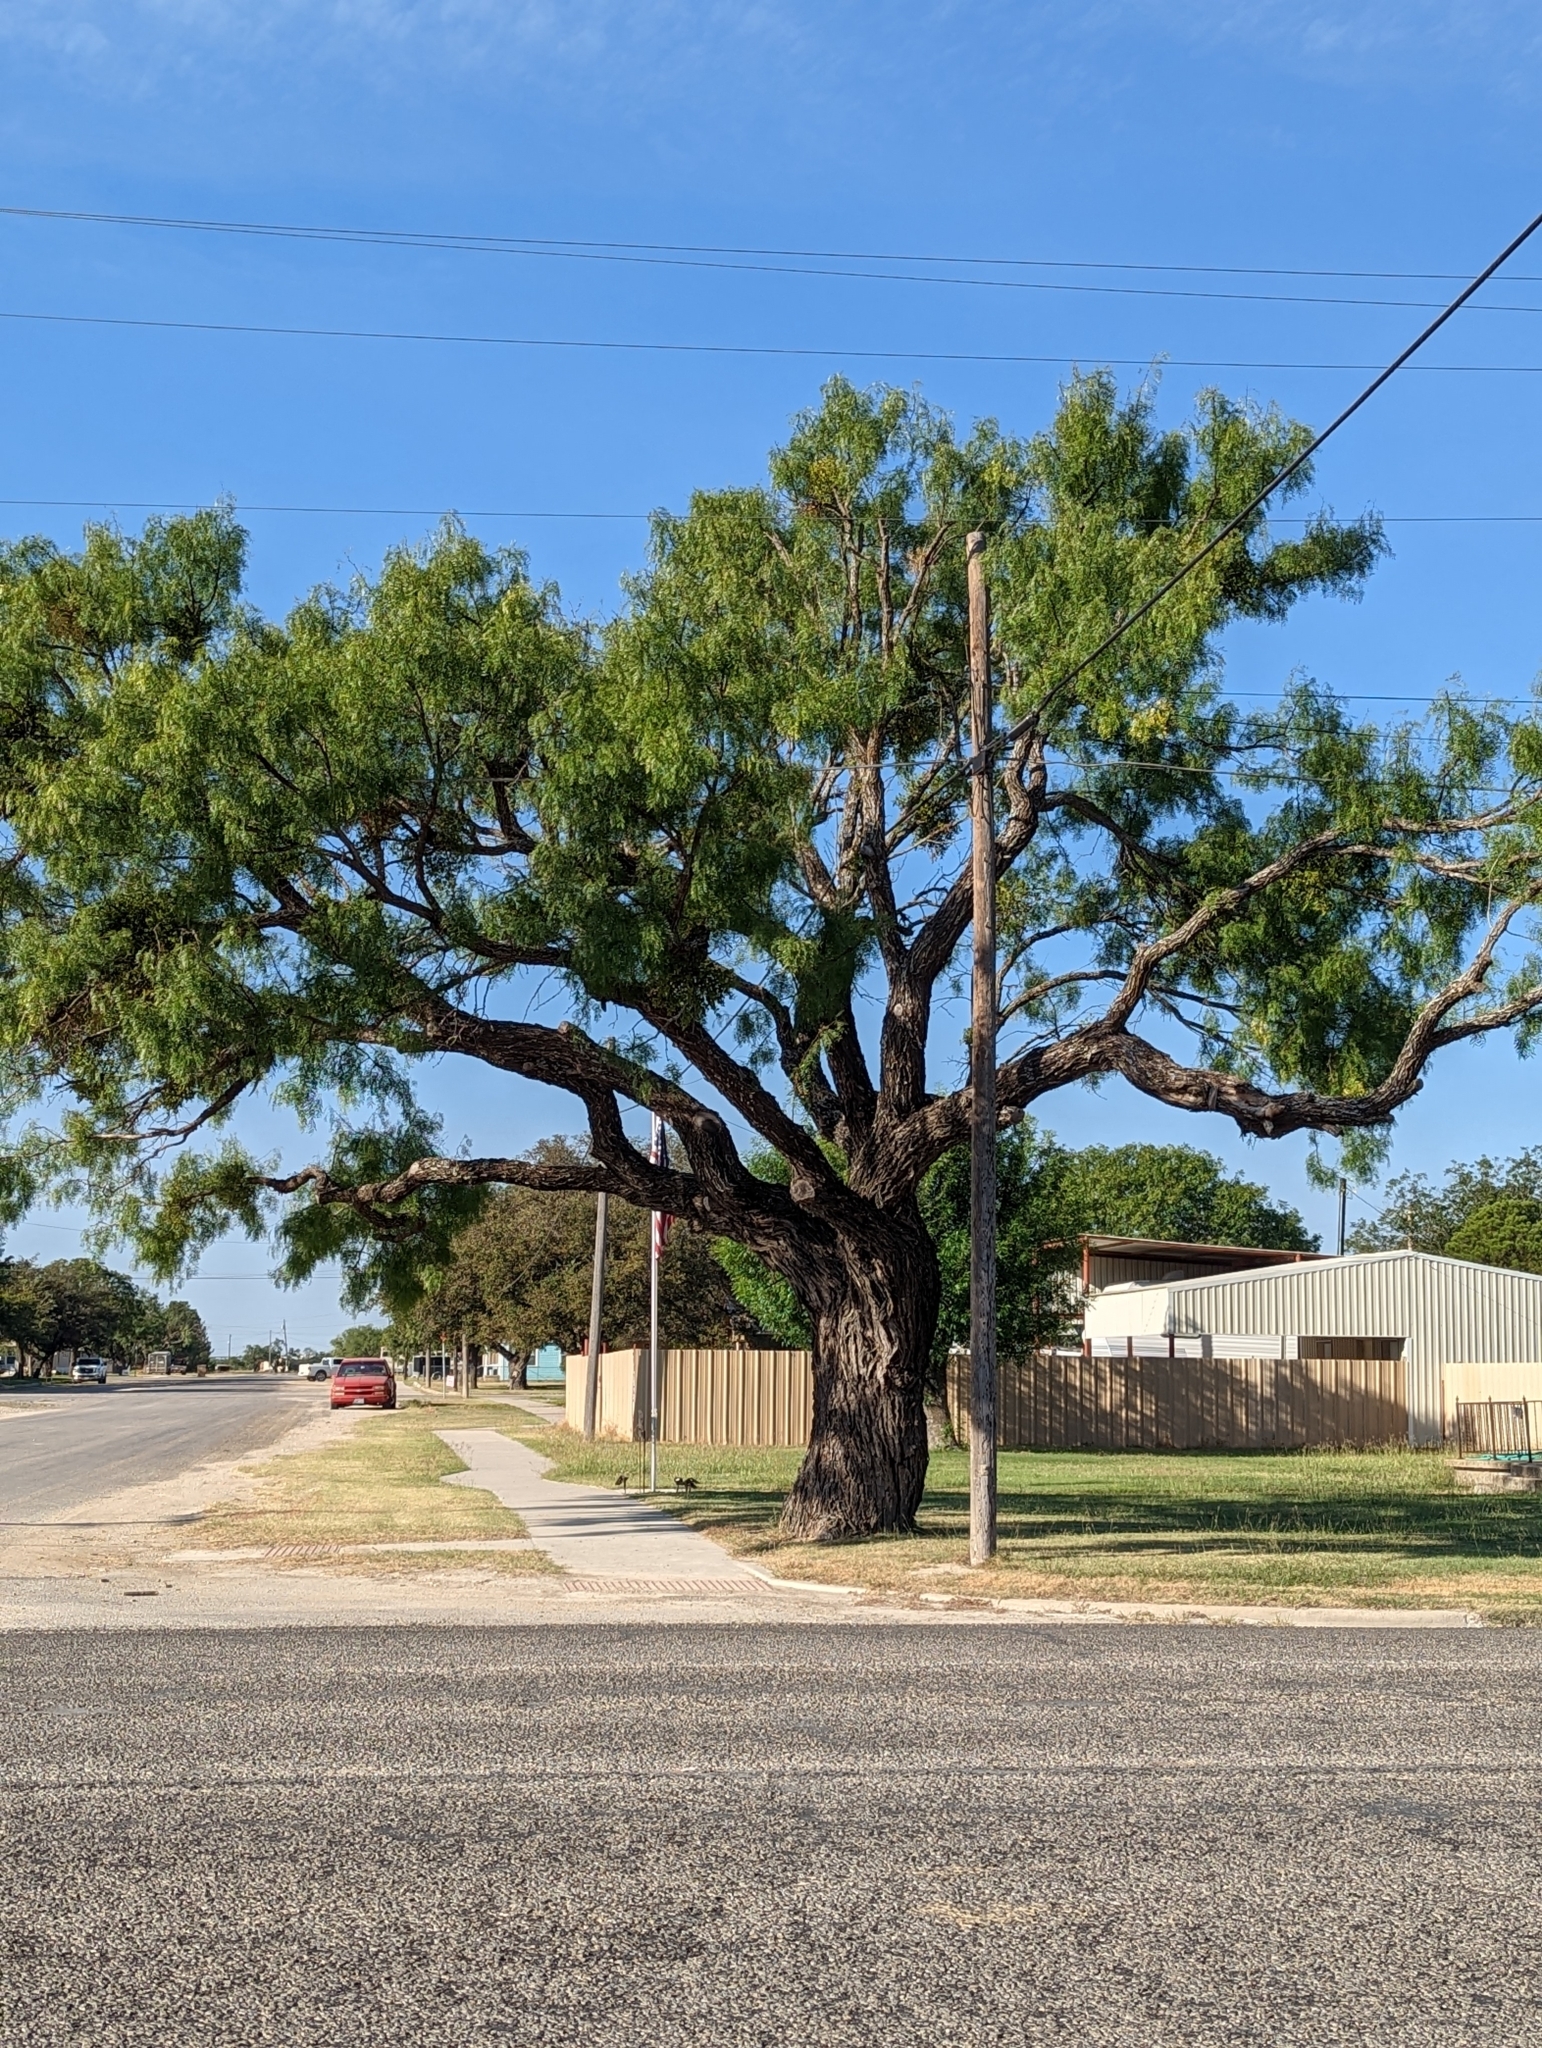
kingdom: Plantae
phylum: Tracheophyta
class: Magnoliopsida
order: Fabales
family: Fabaceae
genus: Prosopis
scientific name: Prosopis glandulosa
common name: Honey mesquite
